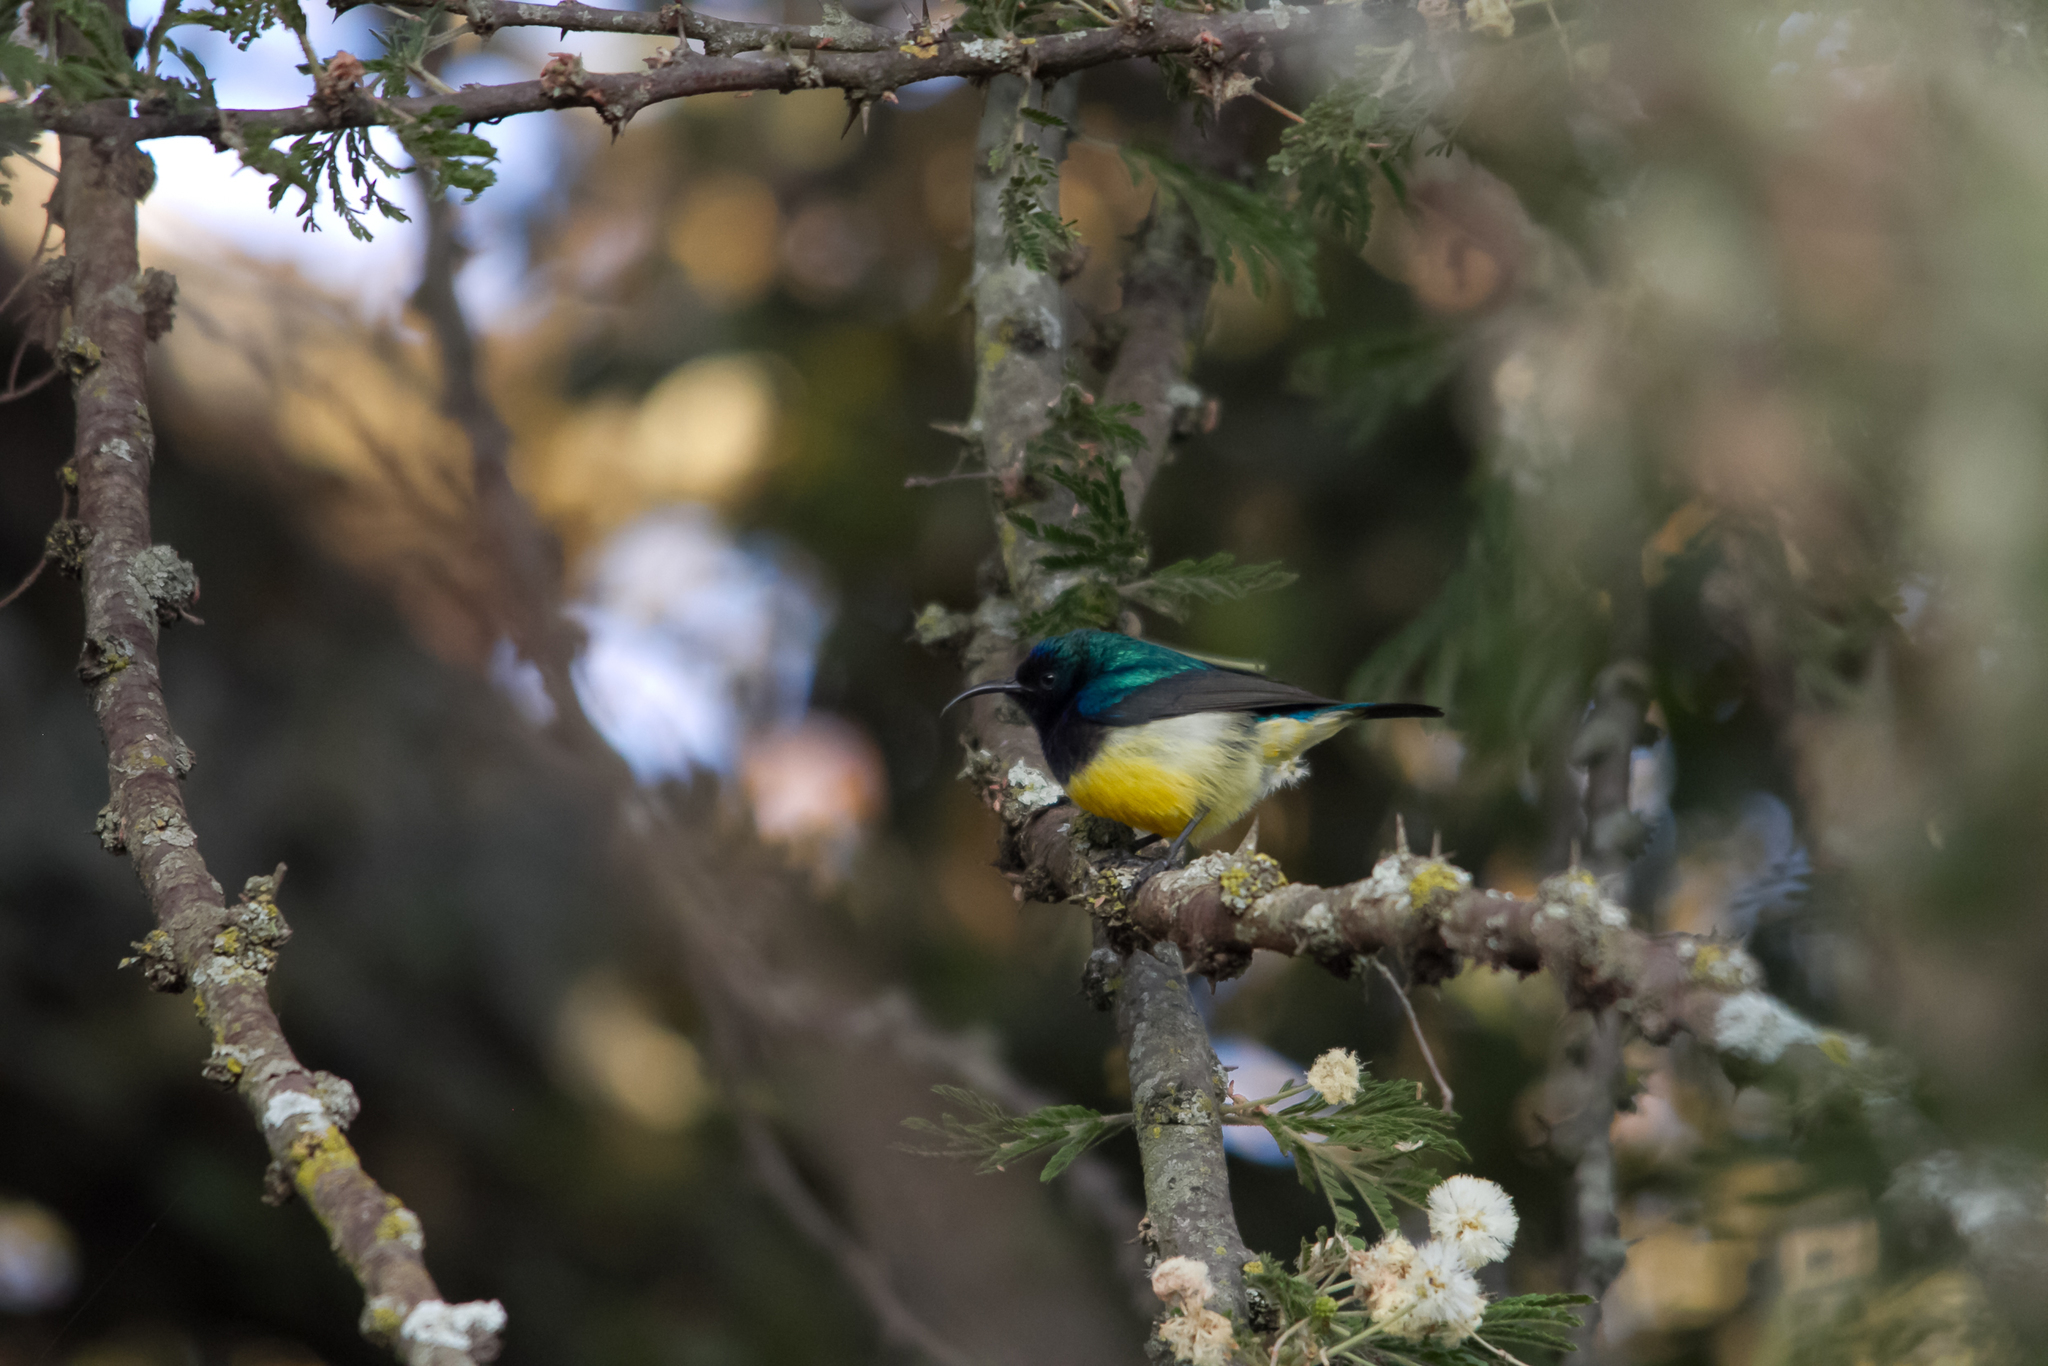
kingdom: Animalia
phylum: Chordata
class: Aves
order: Passeriformes
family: Nectariniidae
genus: Cinnyris
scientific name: Cinnyris venustus
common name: Variable sunbird
